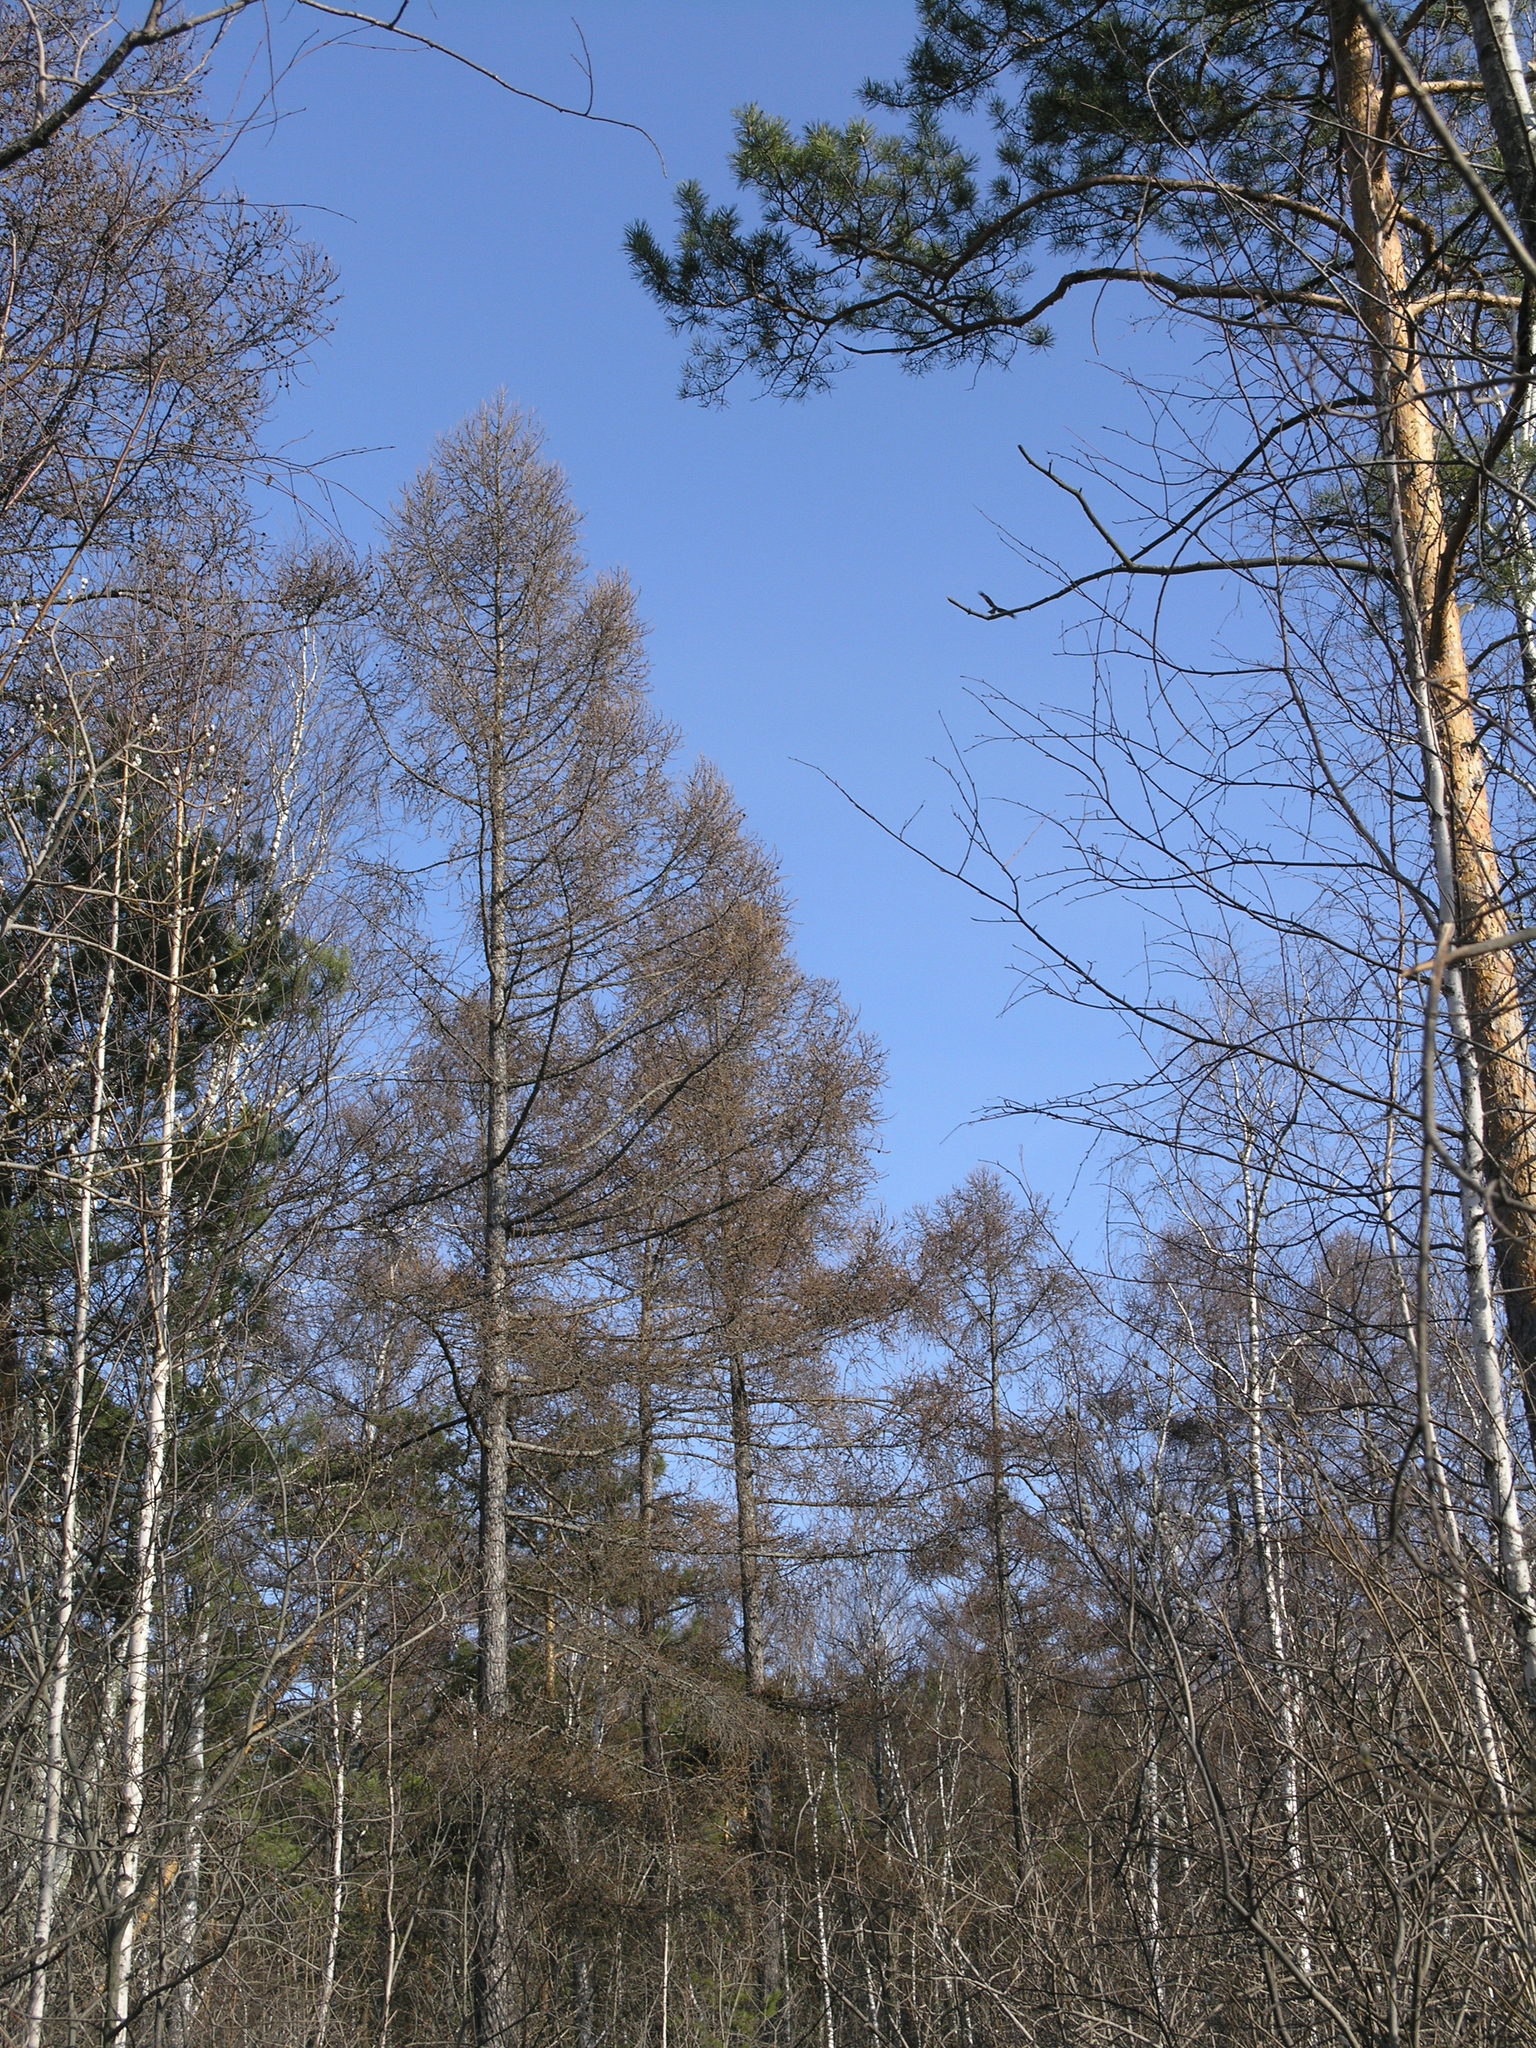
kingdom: Plantae
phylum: Tracheophyta
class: Pinopsida
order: Pinales
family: Pinaceae
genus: Pinus
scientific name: Pinus sylvestris
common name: Scots pine
